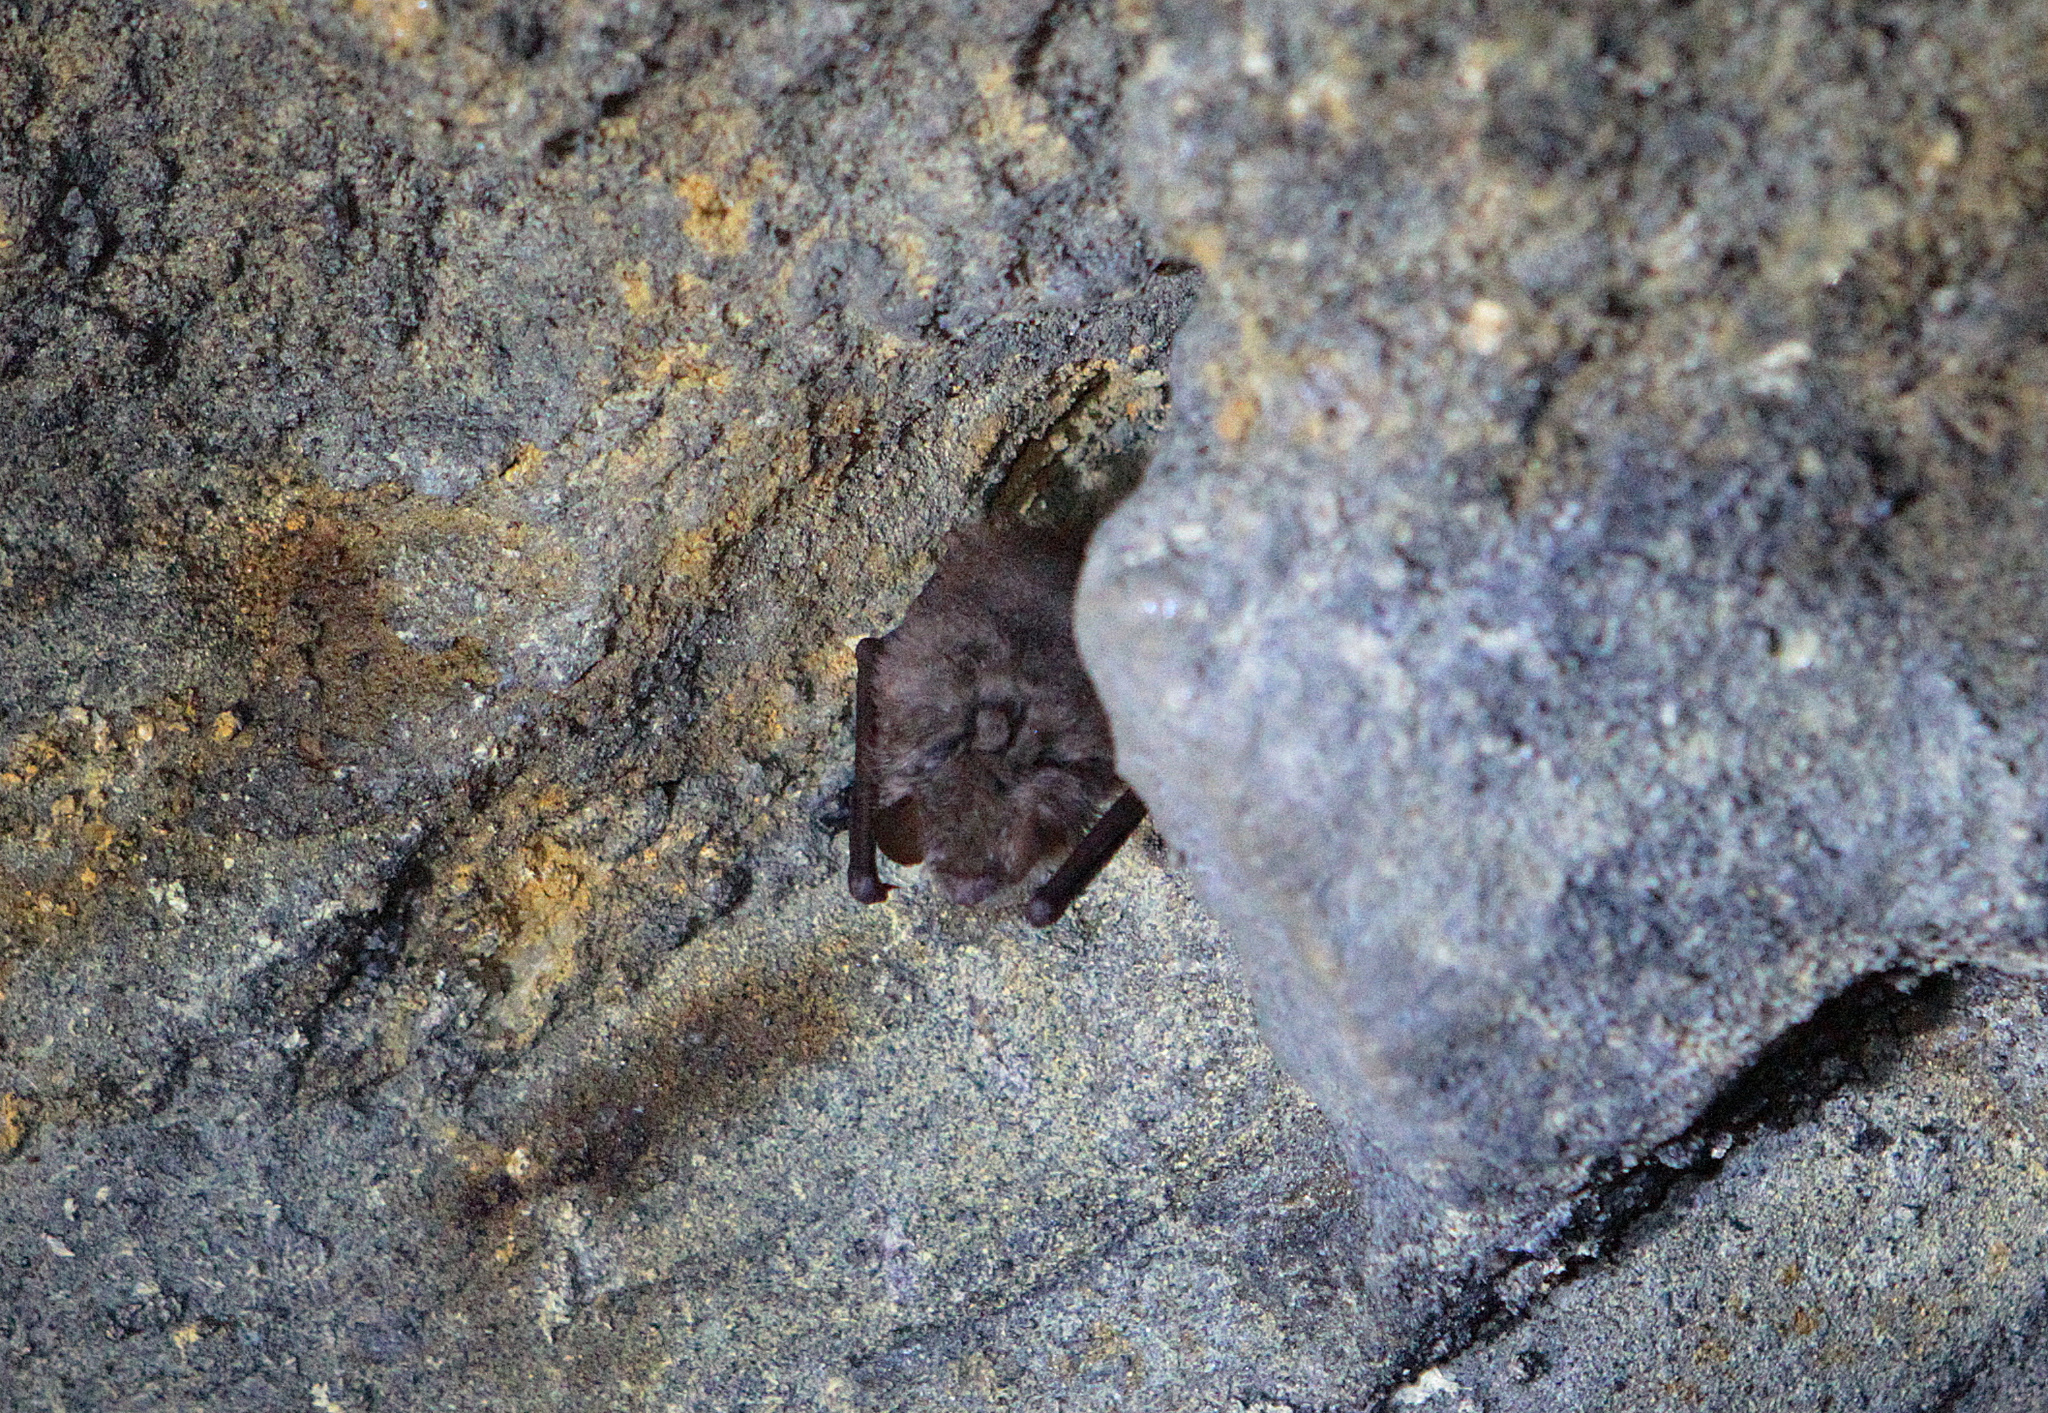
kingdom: Animalia
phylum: Chordata
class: Mammalia
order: Chiroptera
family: Vespertilionidae
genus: Myotis
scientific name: Myotis emarginatus
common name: Geoffroy's bat
